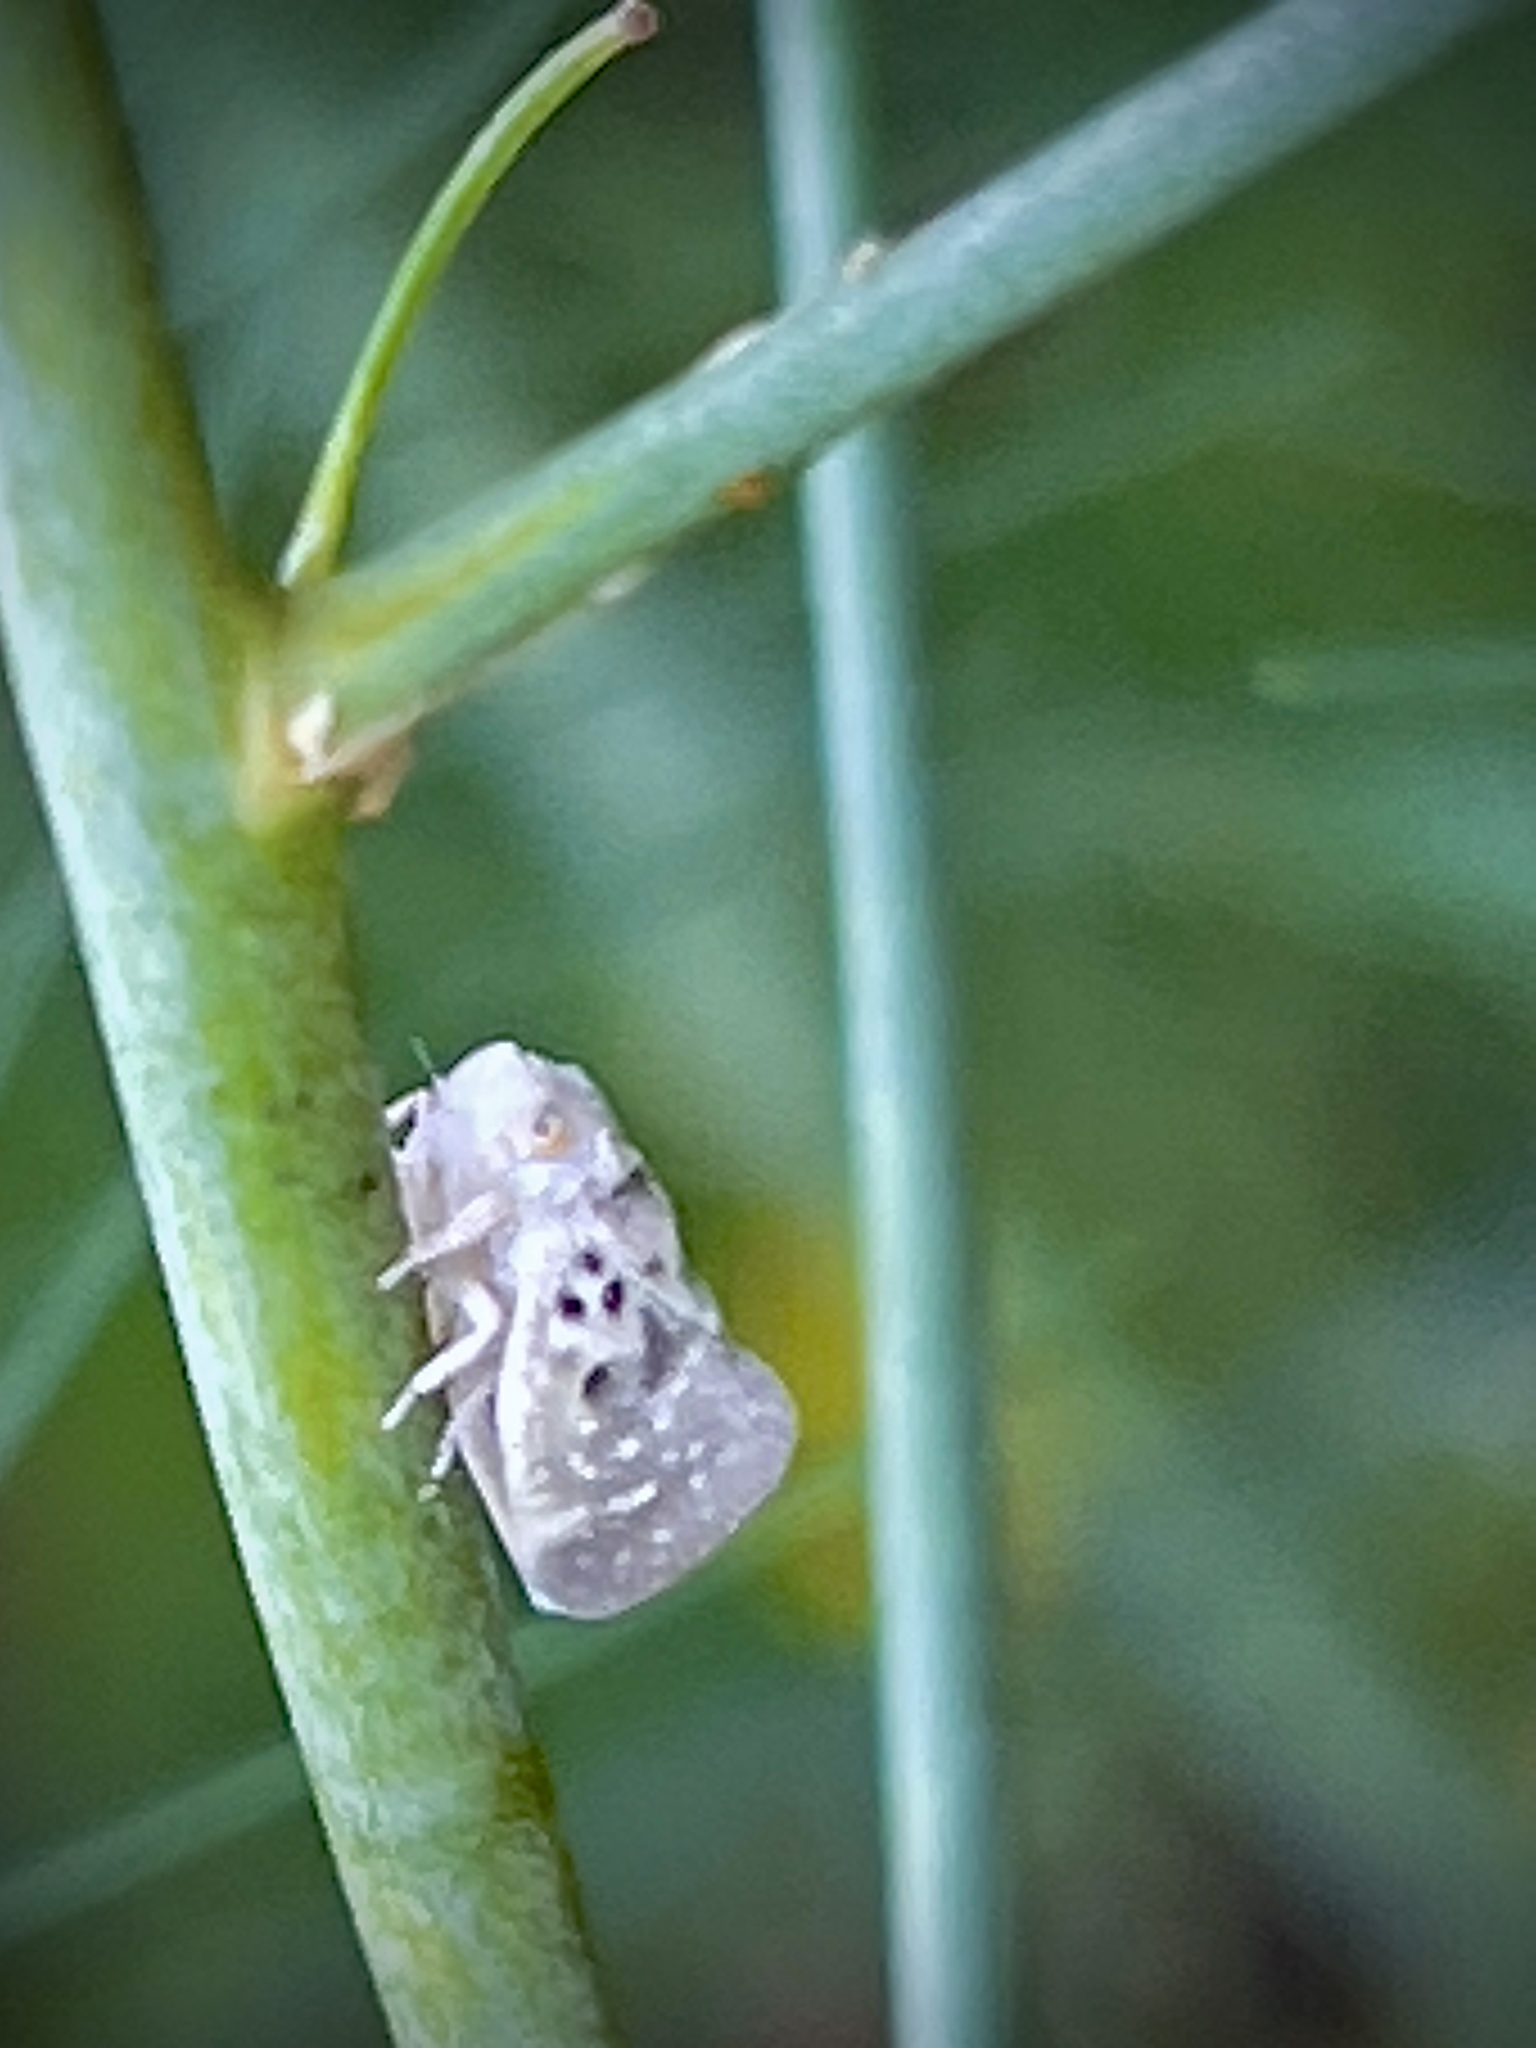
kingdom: Animalia
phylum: Arthropoda
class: Insecta
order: Hemiptera
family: Flatidae
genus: Metcalfa
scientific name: Metcalfa pruinosa
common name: Citrus flatid planthopper
